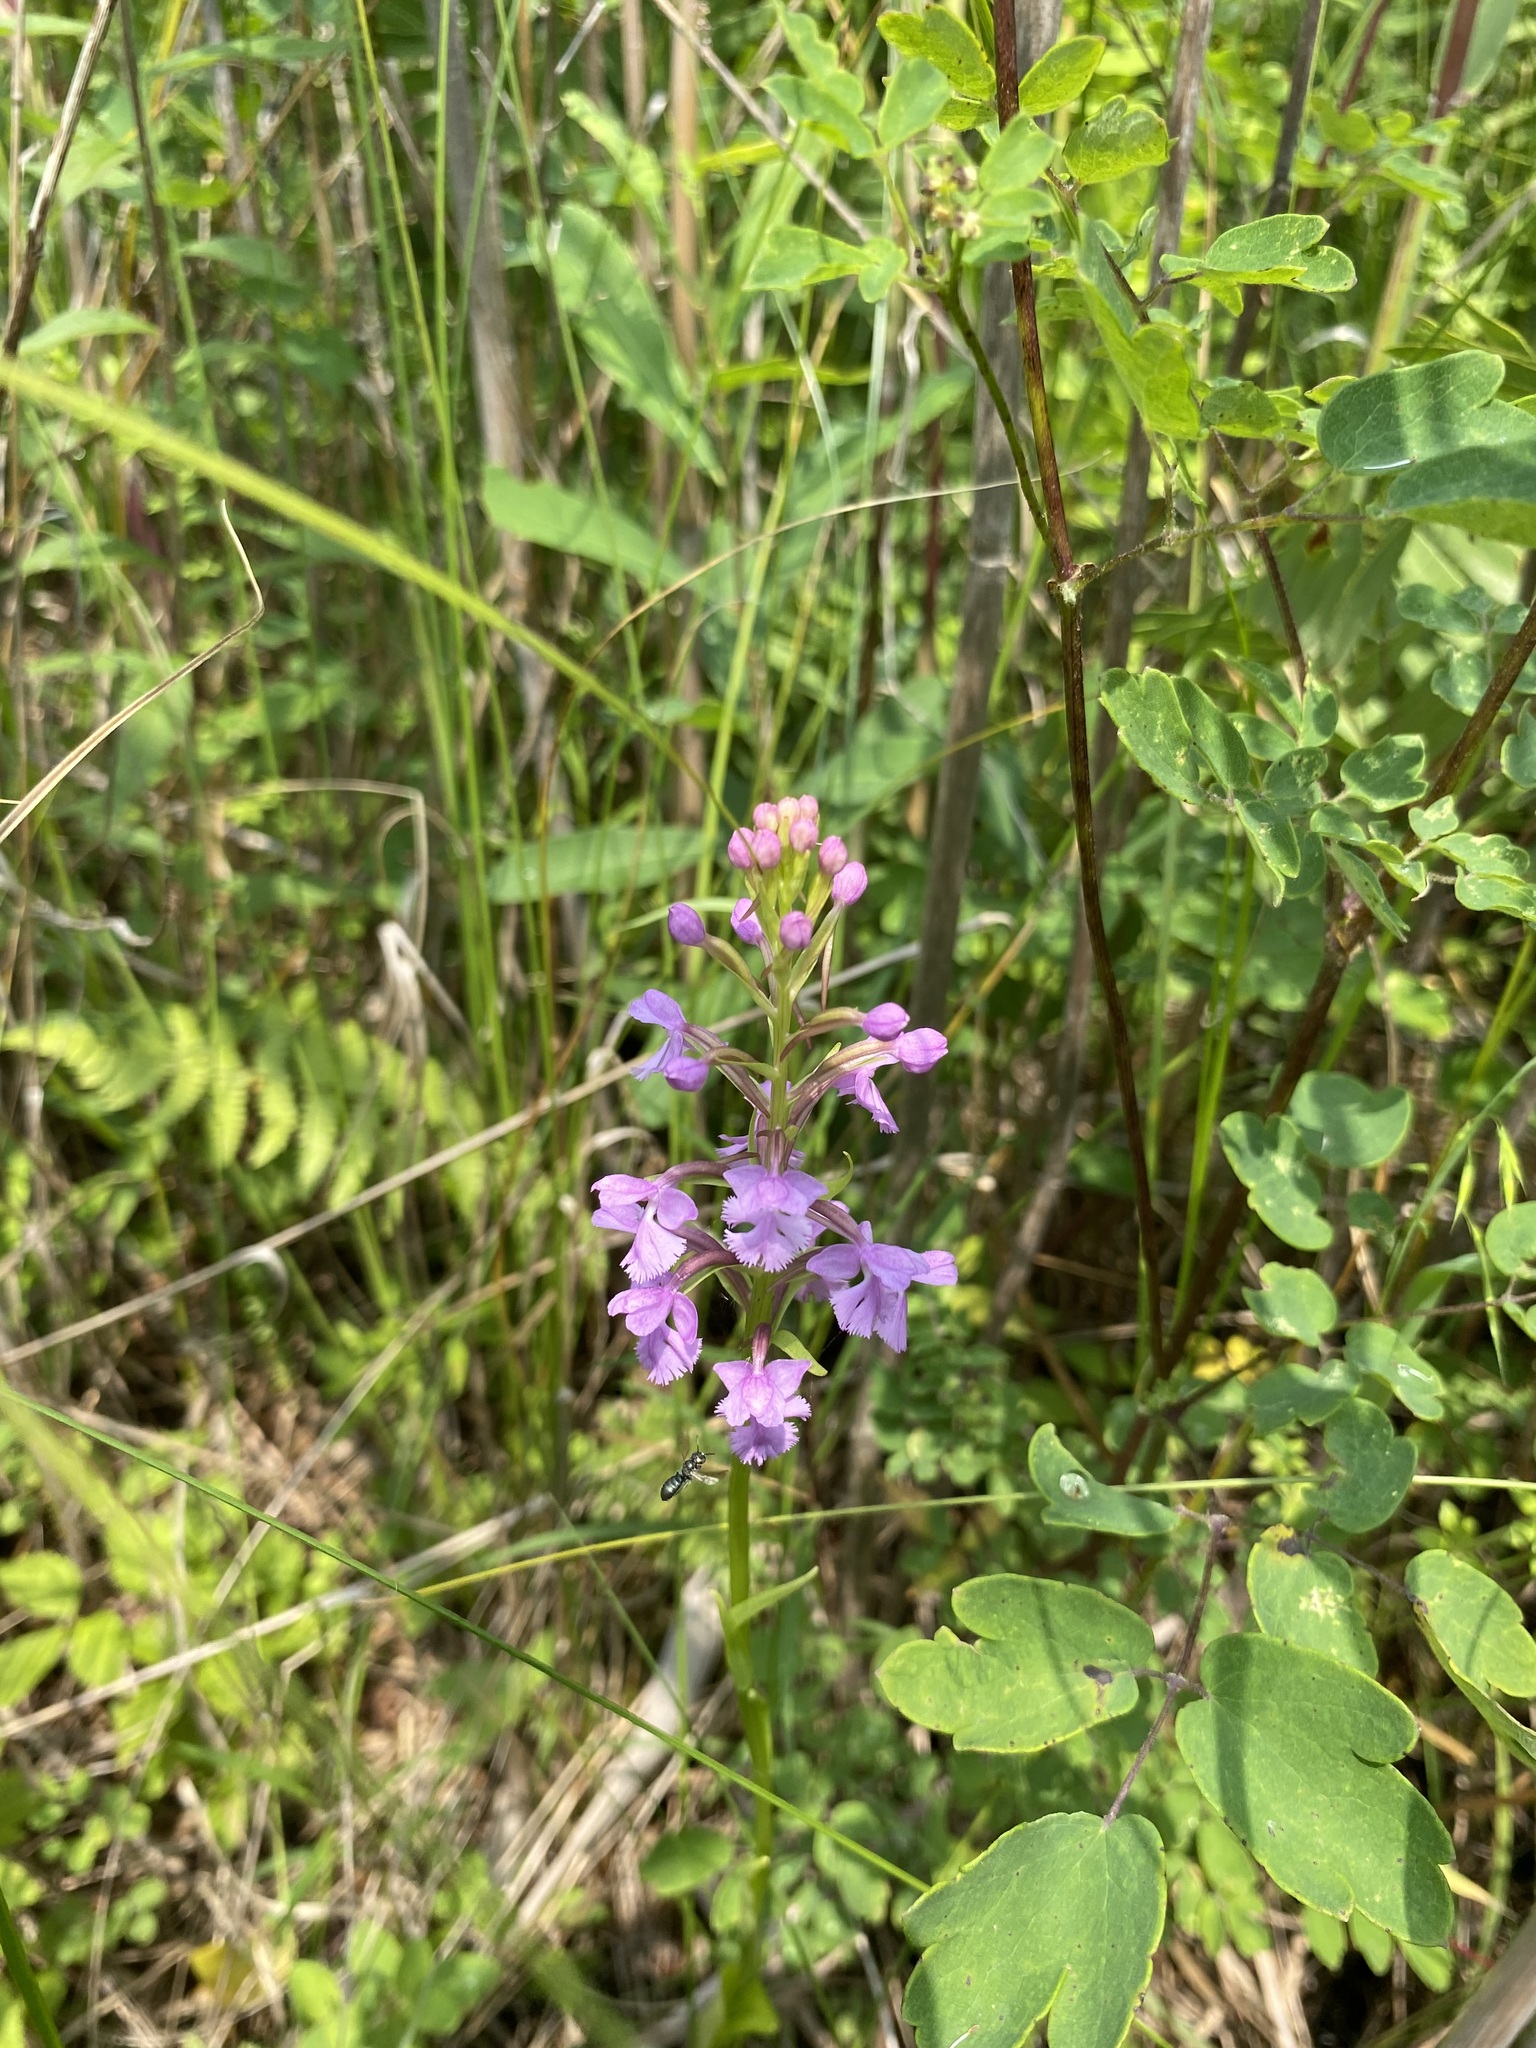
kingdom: Plantae
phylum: Tracheophyta
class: Liliopsida
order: Asparagales
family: Orchidaceae
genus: Platanthera
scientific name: Platanthera psycodes
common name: Lesser purple fringed orchid
